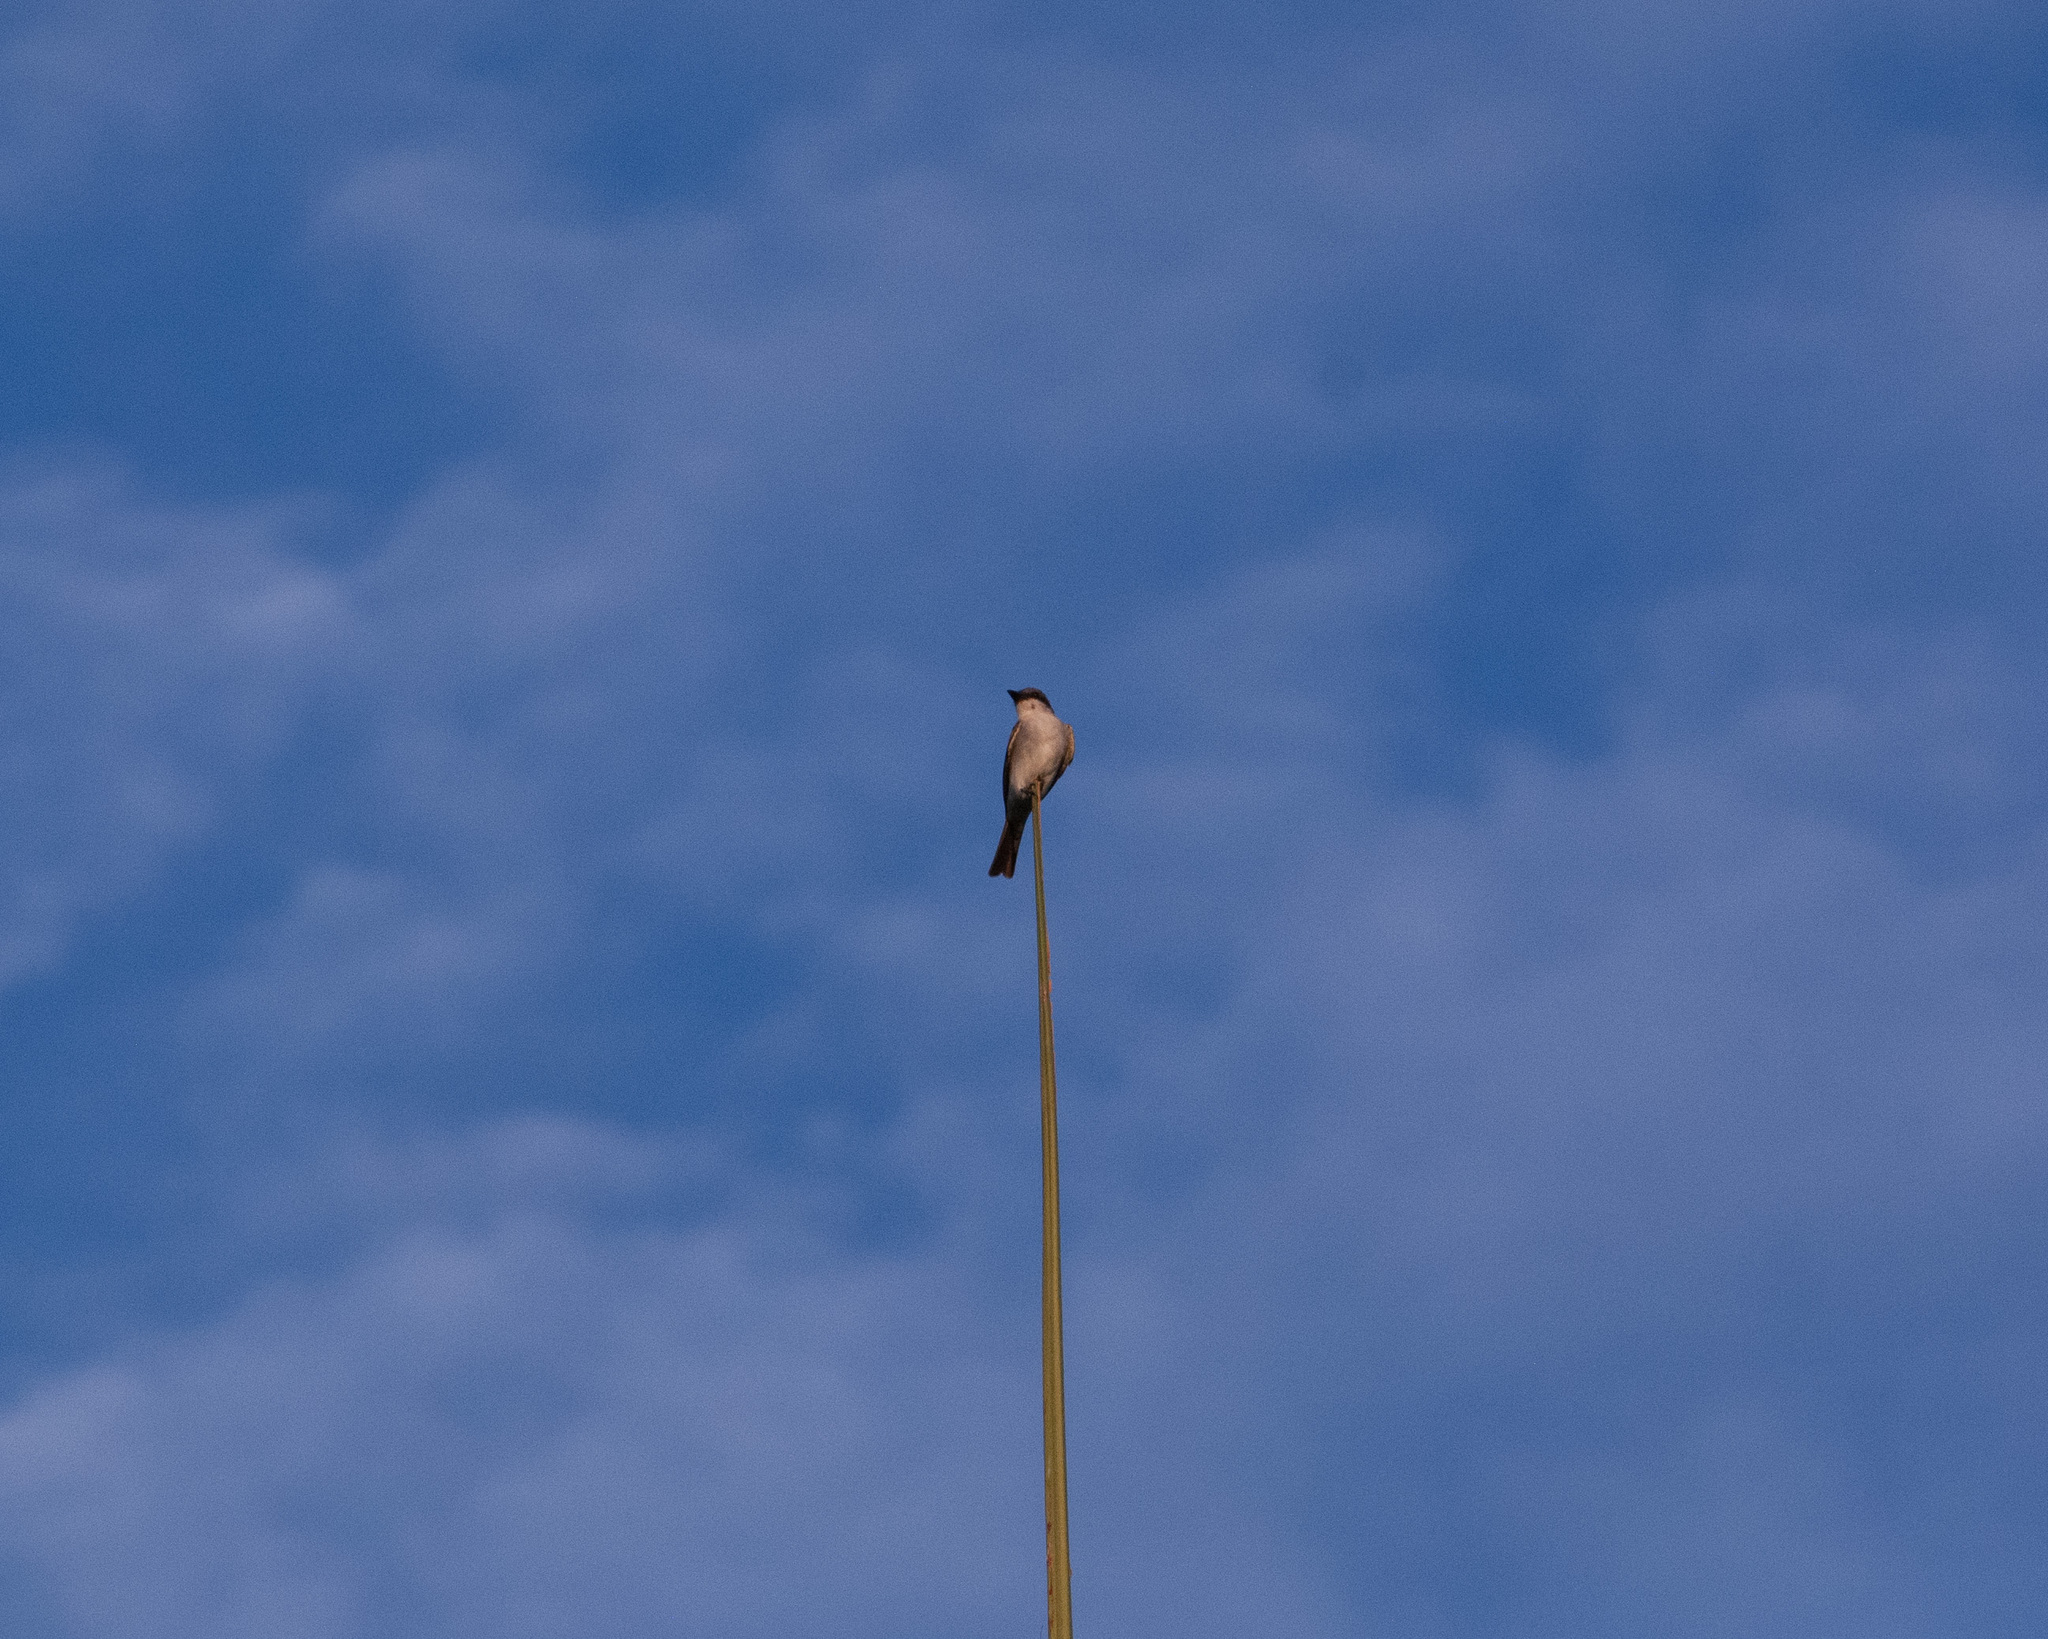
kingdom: Animalia
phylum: Chordata
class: Aves
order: Passeriformes
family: Tyrannidae
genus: Tyrannus
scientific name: Tyrannus dominicensis
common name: Gray kingbird
